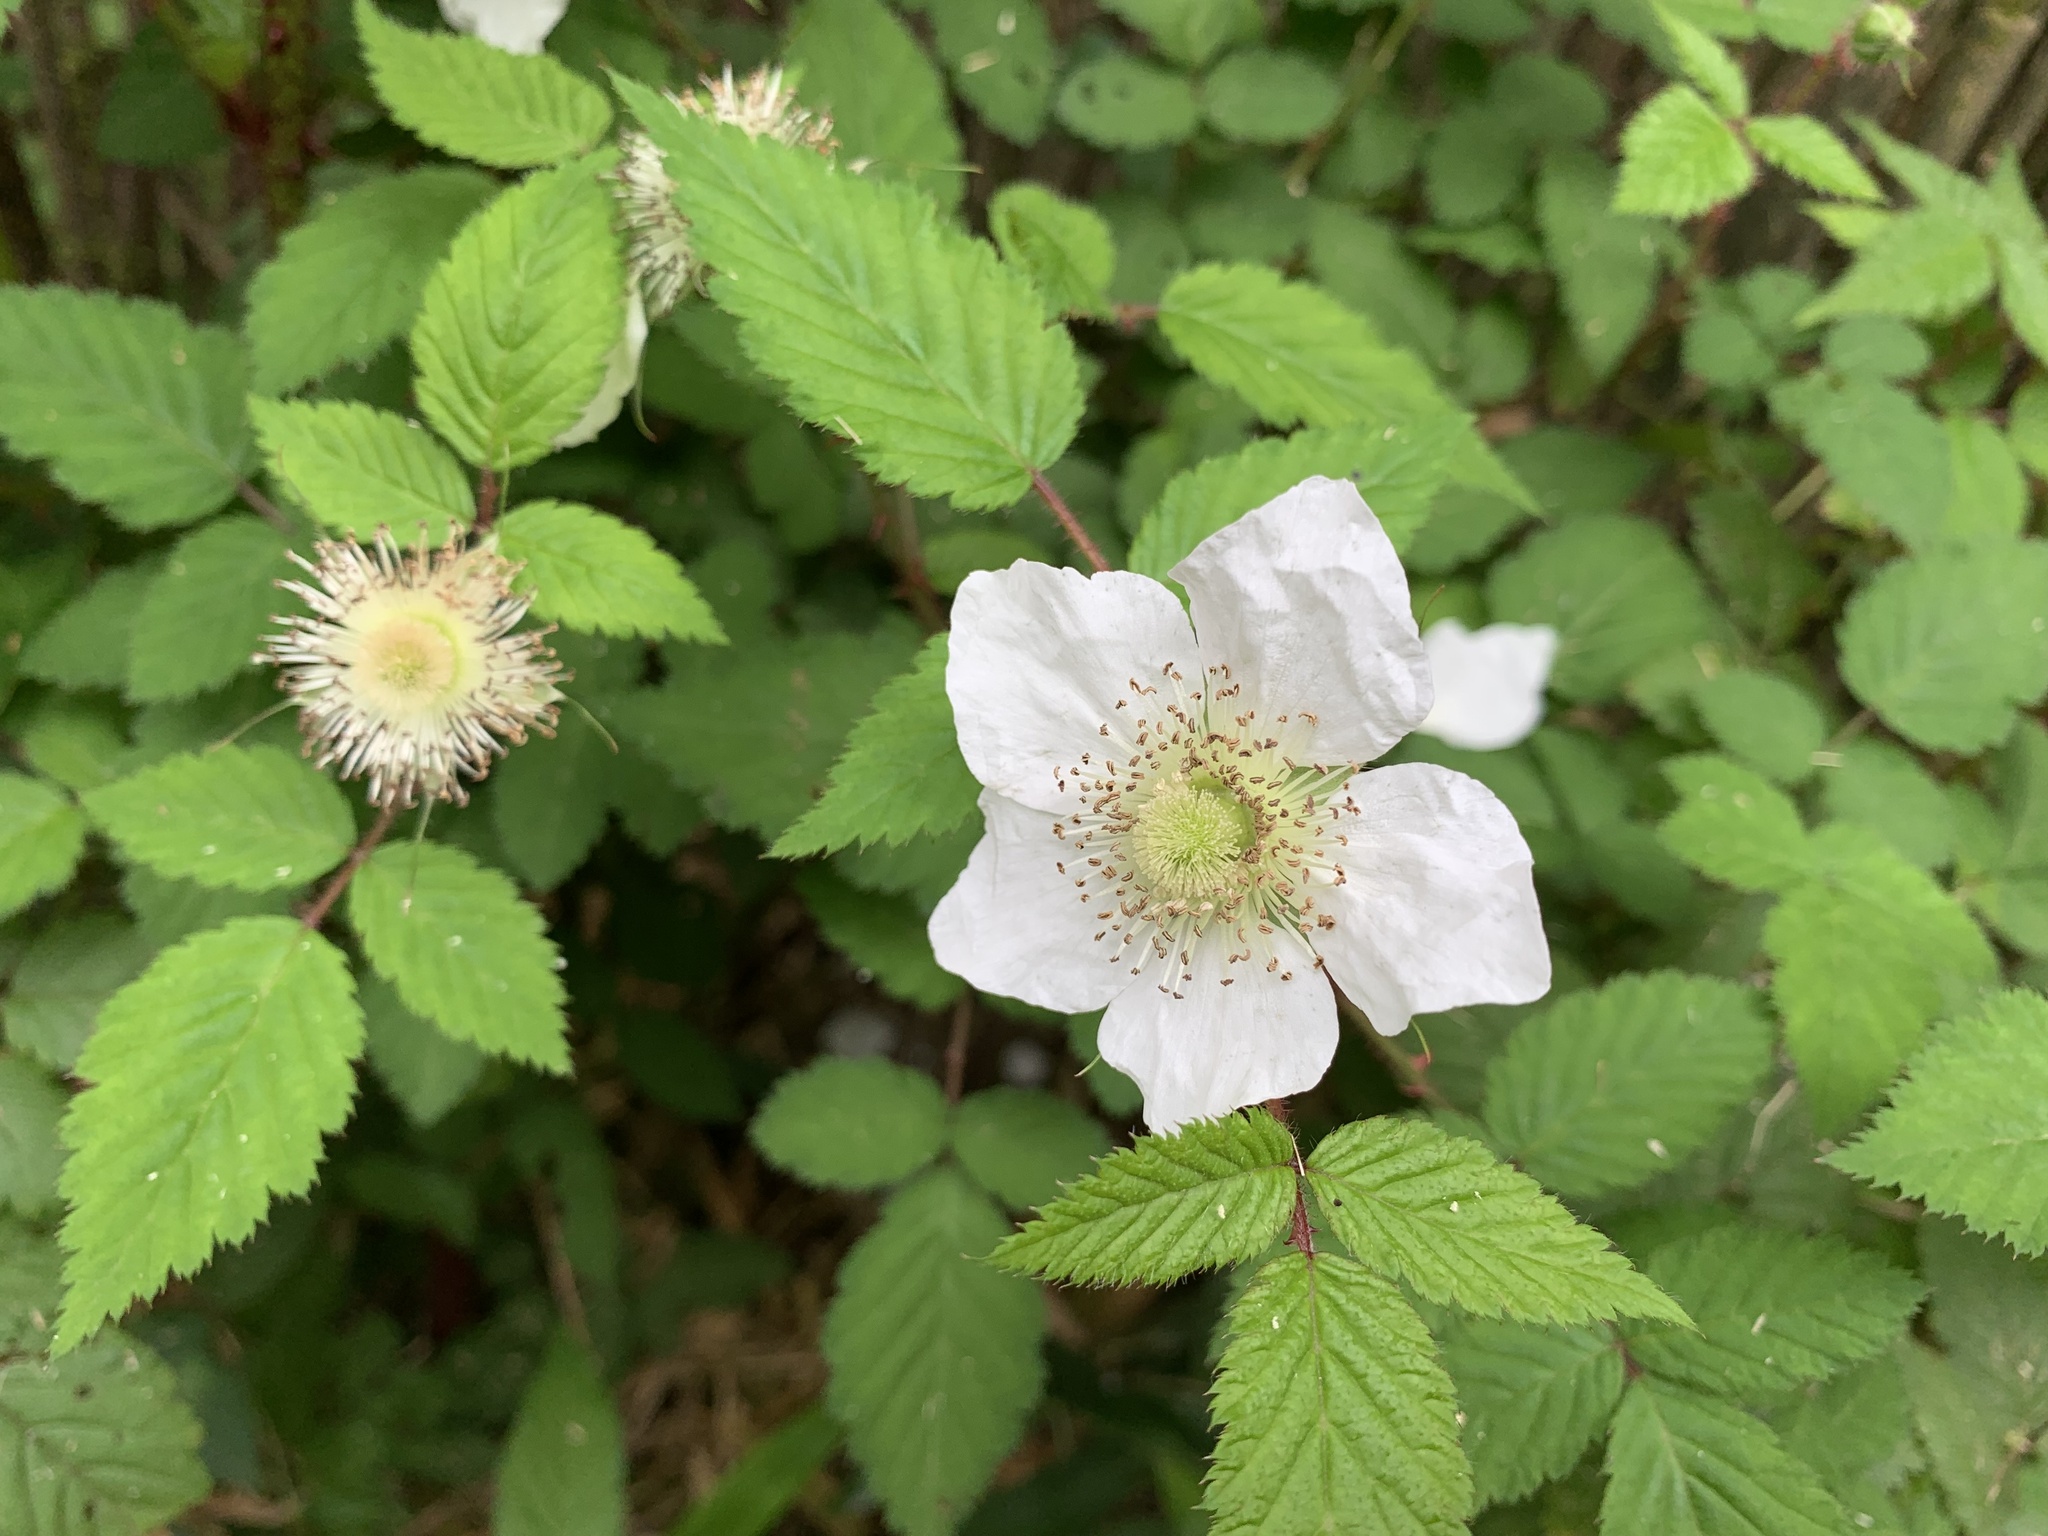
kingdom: Plantae
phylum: Tracheophyta
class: Magnoliopsida
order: Rosales
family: Rosaceae
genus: Rubus
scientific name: Rubus croceacanthus
